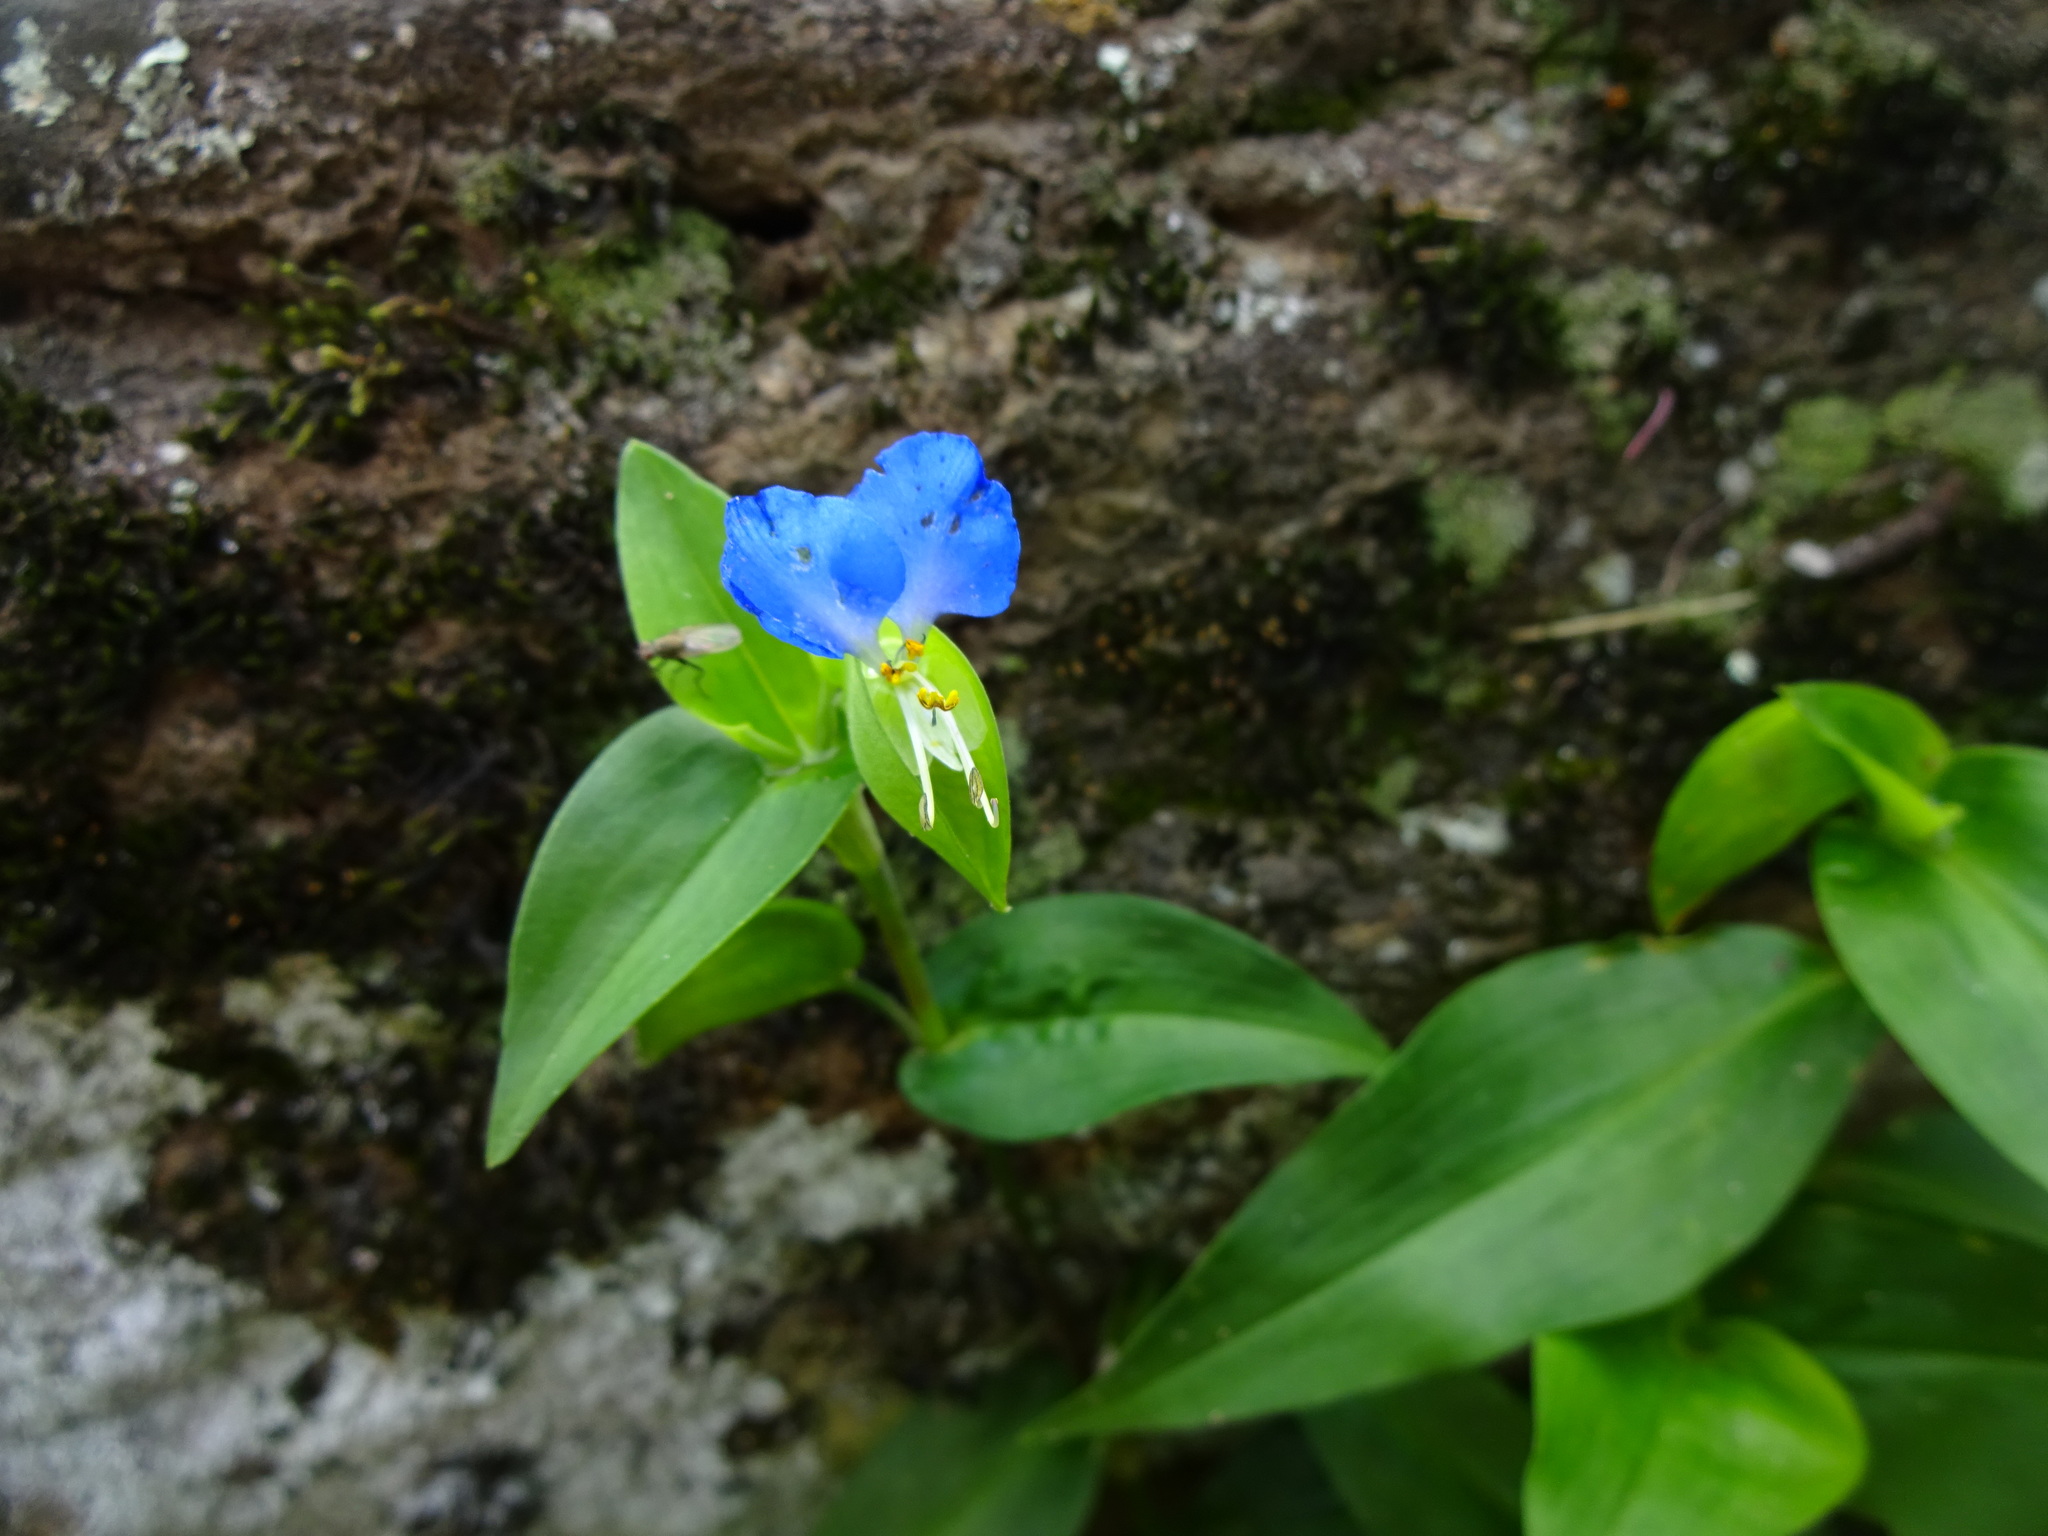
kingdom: Plantae
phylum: Tracheophyta
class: Liliopsida
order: Commelinales
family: Commelinaceae
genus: Commelina
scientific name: Commelina communis
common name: Asiatic dayflower
